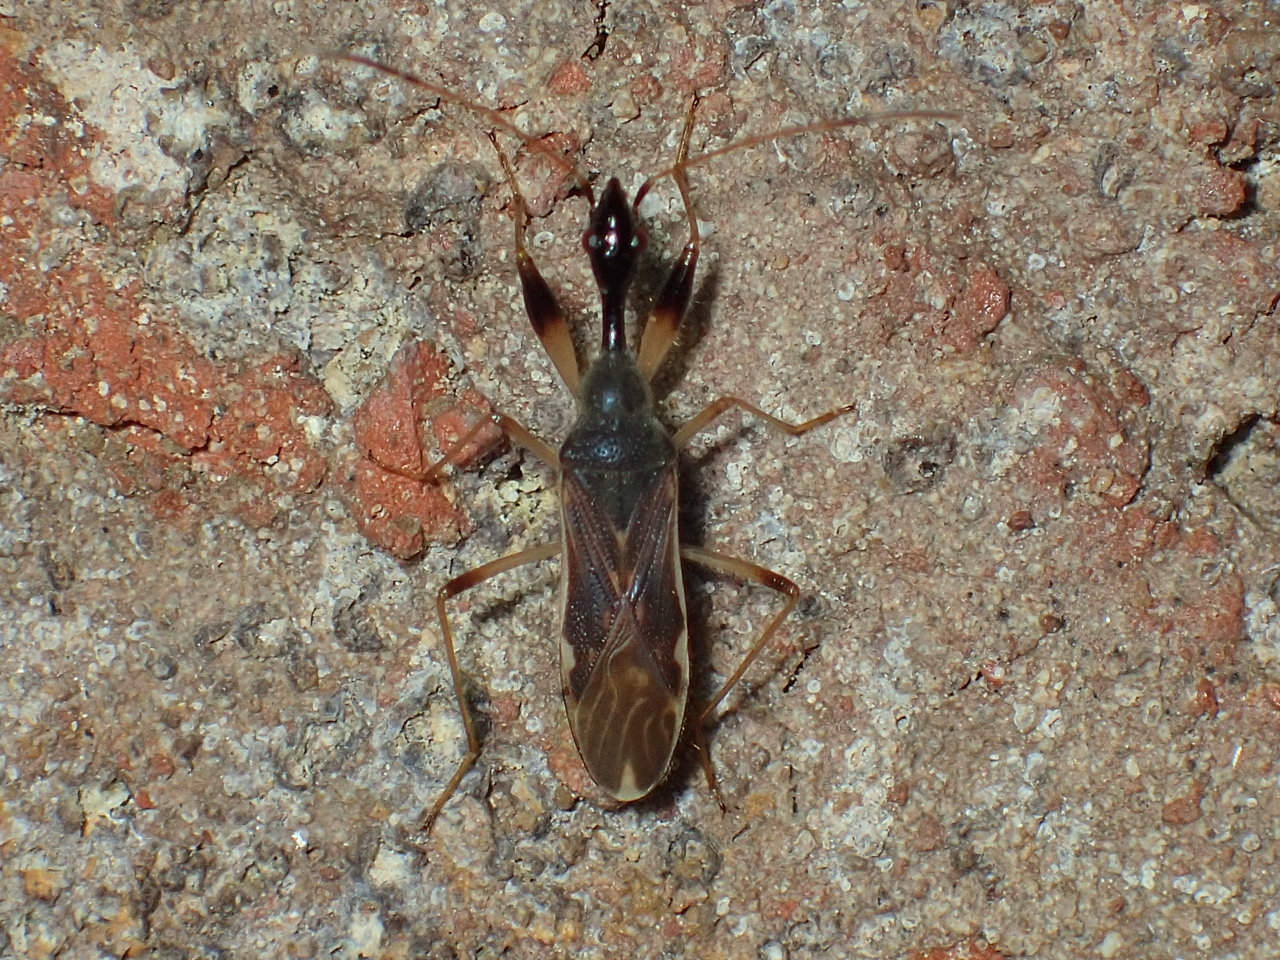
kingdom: Animalia
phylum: Arthropoda
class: Insecta
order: Hemiptera
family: Rhyparochromidae
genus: Myodocha
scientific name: Myodocha serripes
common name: Long-necked seed bug
